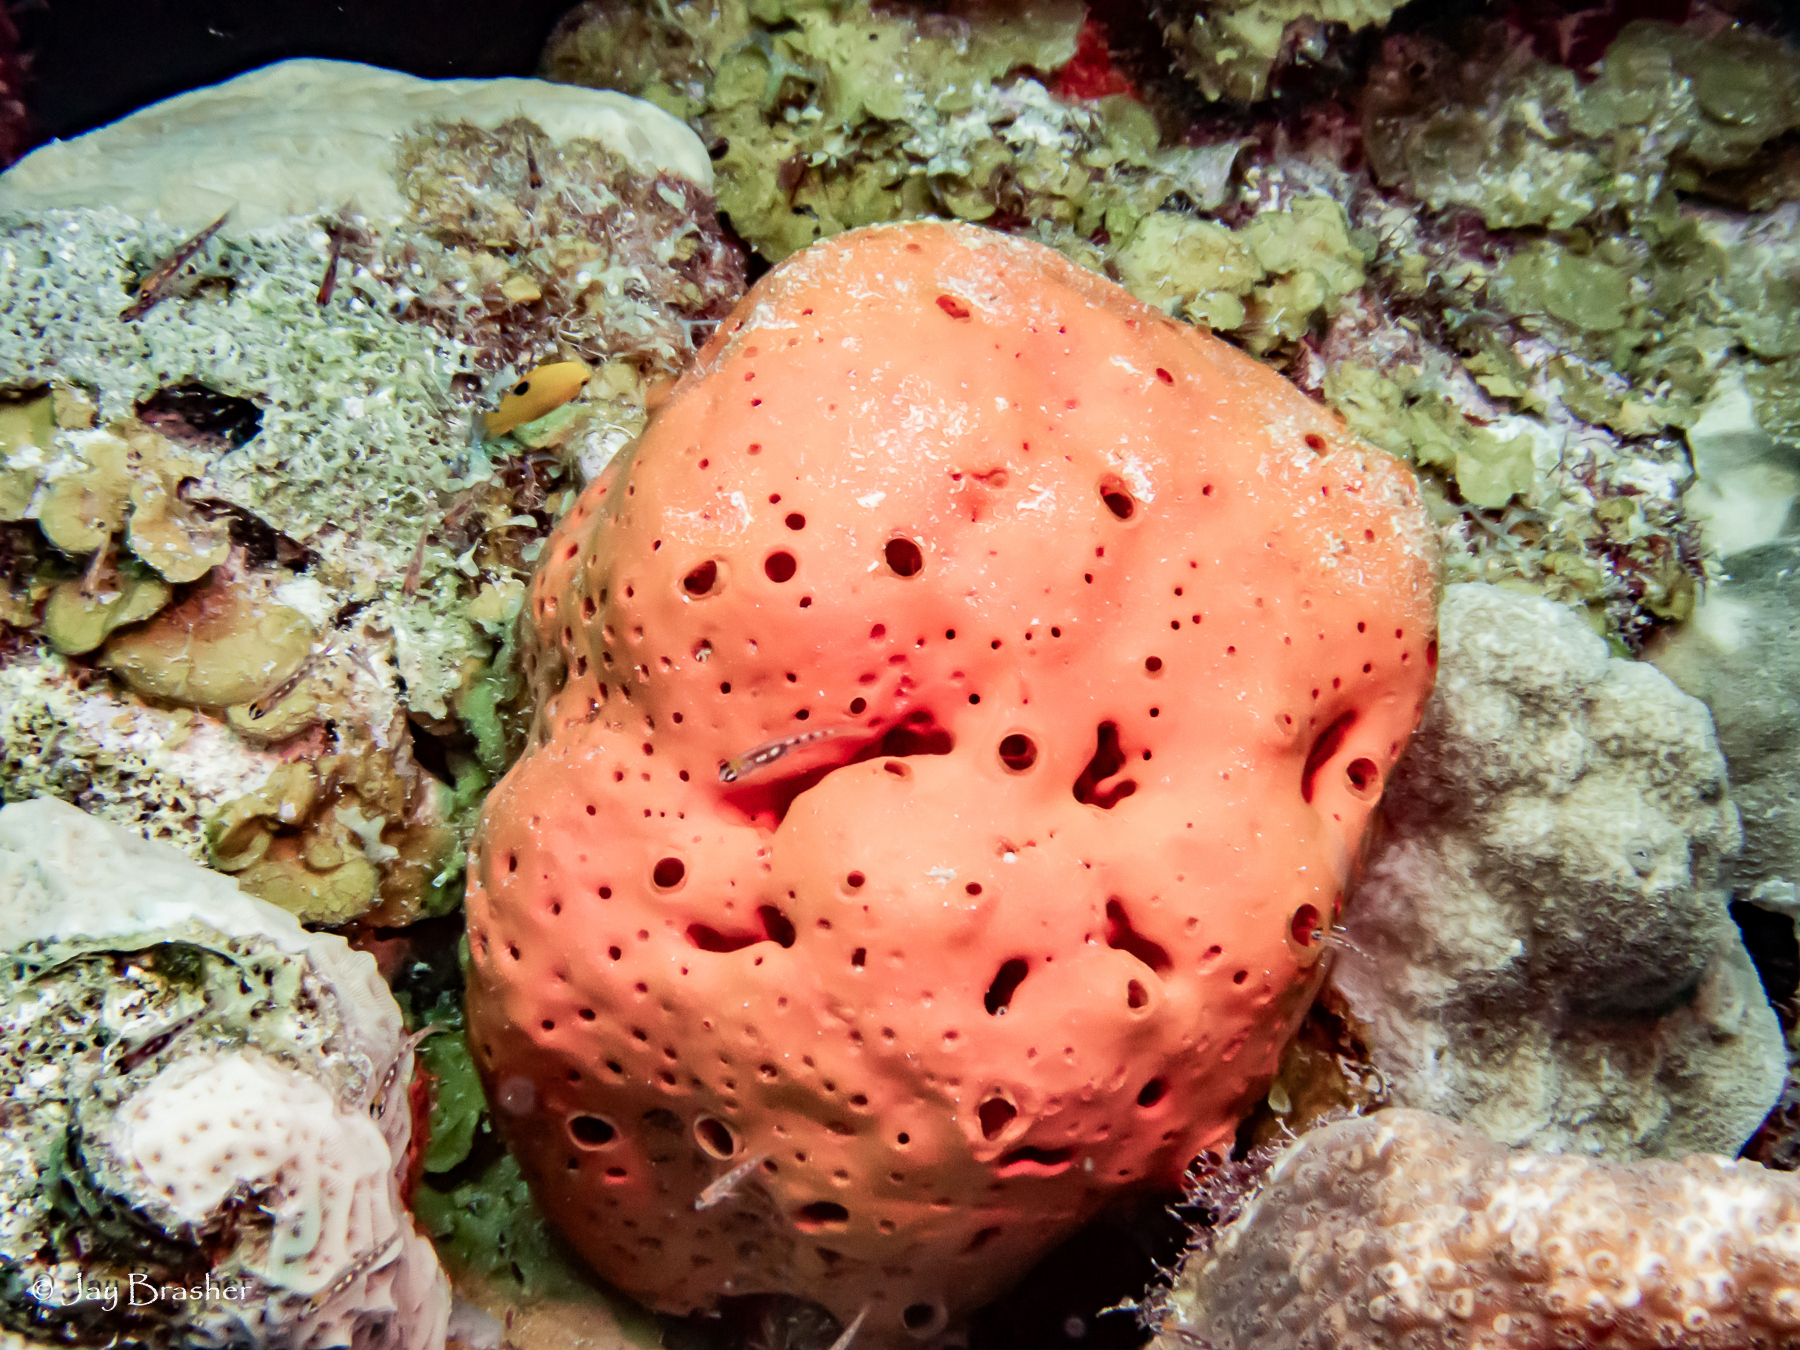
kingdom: Animalia
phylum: Porifera
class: Demospongiae
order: Agelasida
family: Agelasidae
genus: Agelas
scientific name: Agelas sventres
